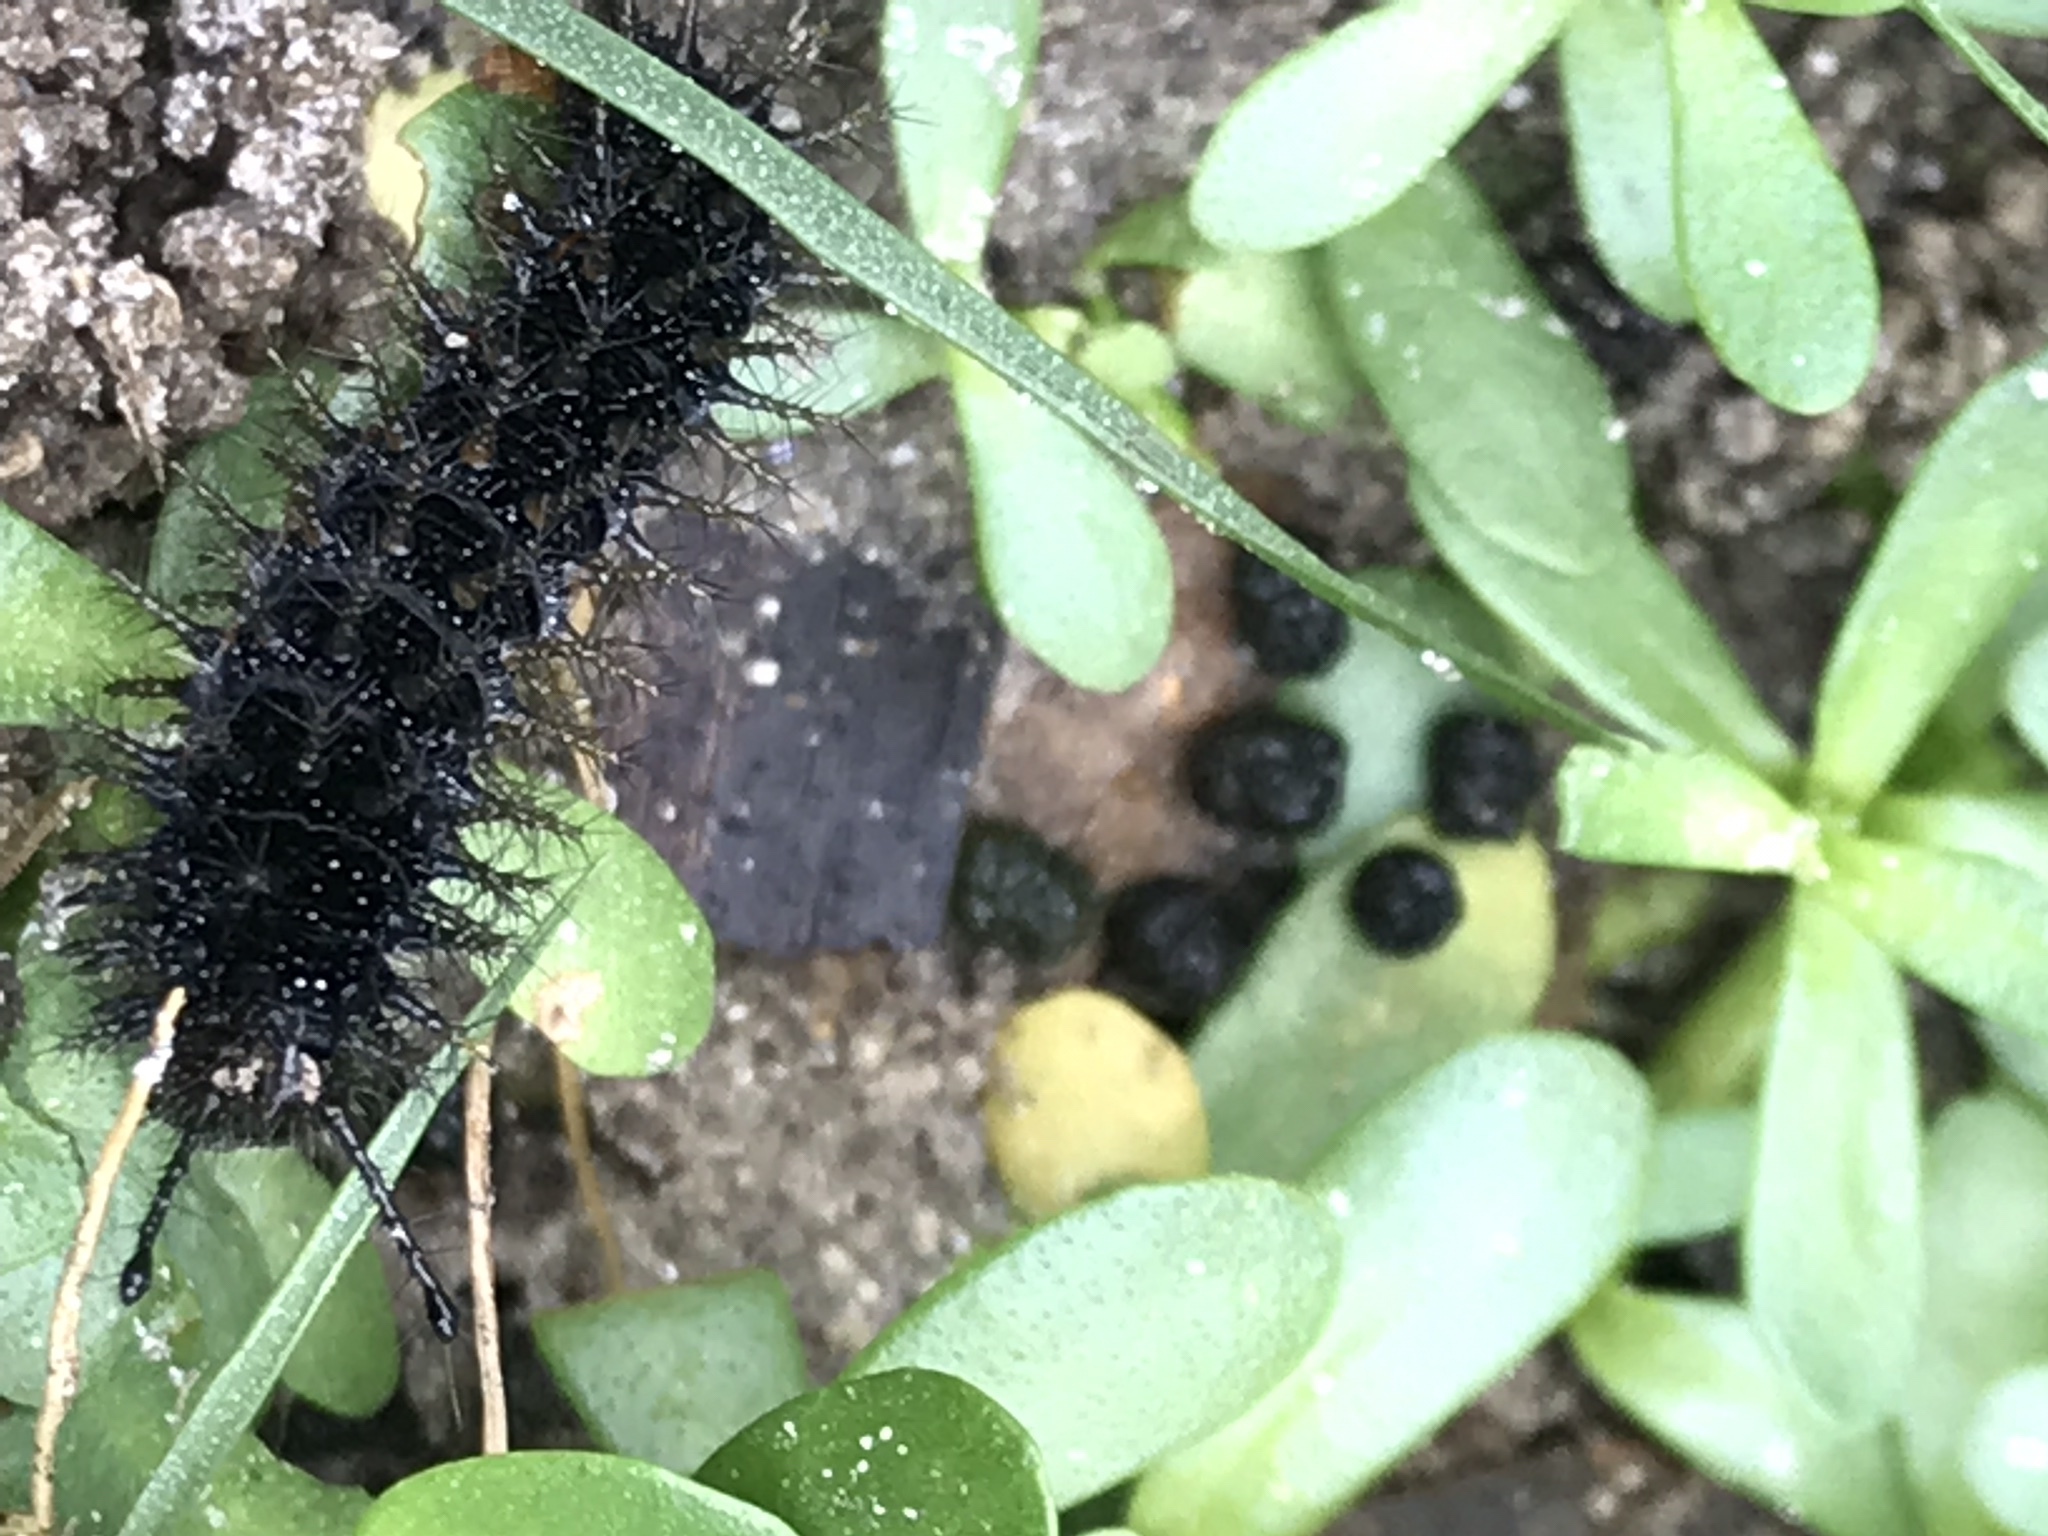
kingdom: Animalia
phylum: Arthropoda
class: Insecta
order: Lepidoptera
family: Nymphalidae
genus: Anartia
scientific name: Anartia jatrophae
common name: White peacock
